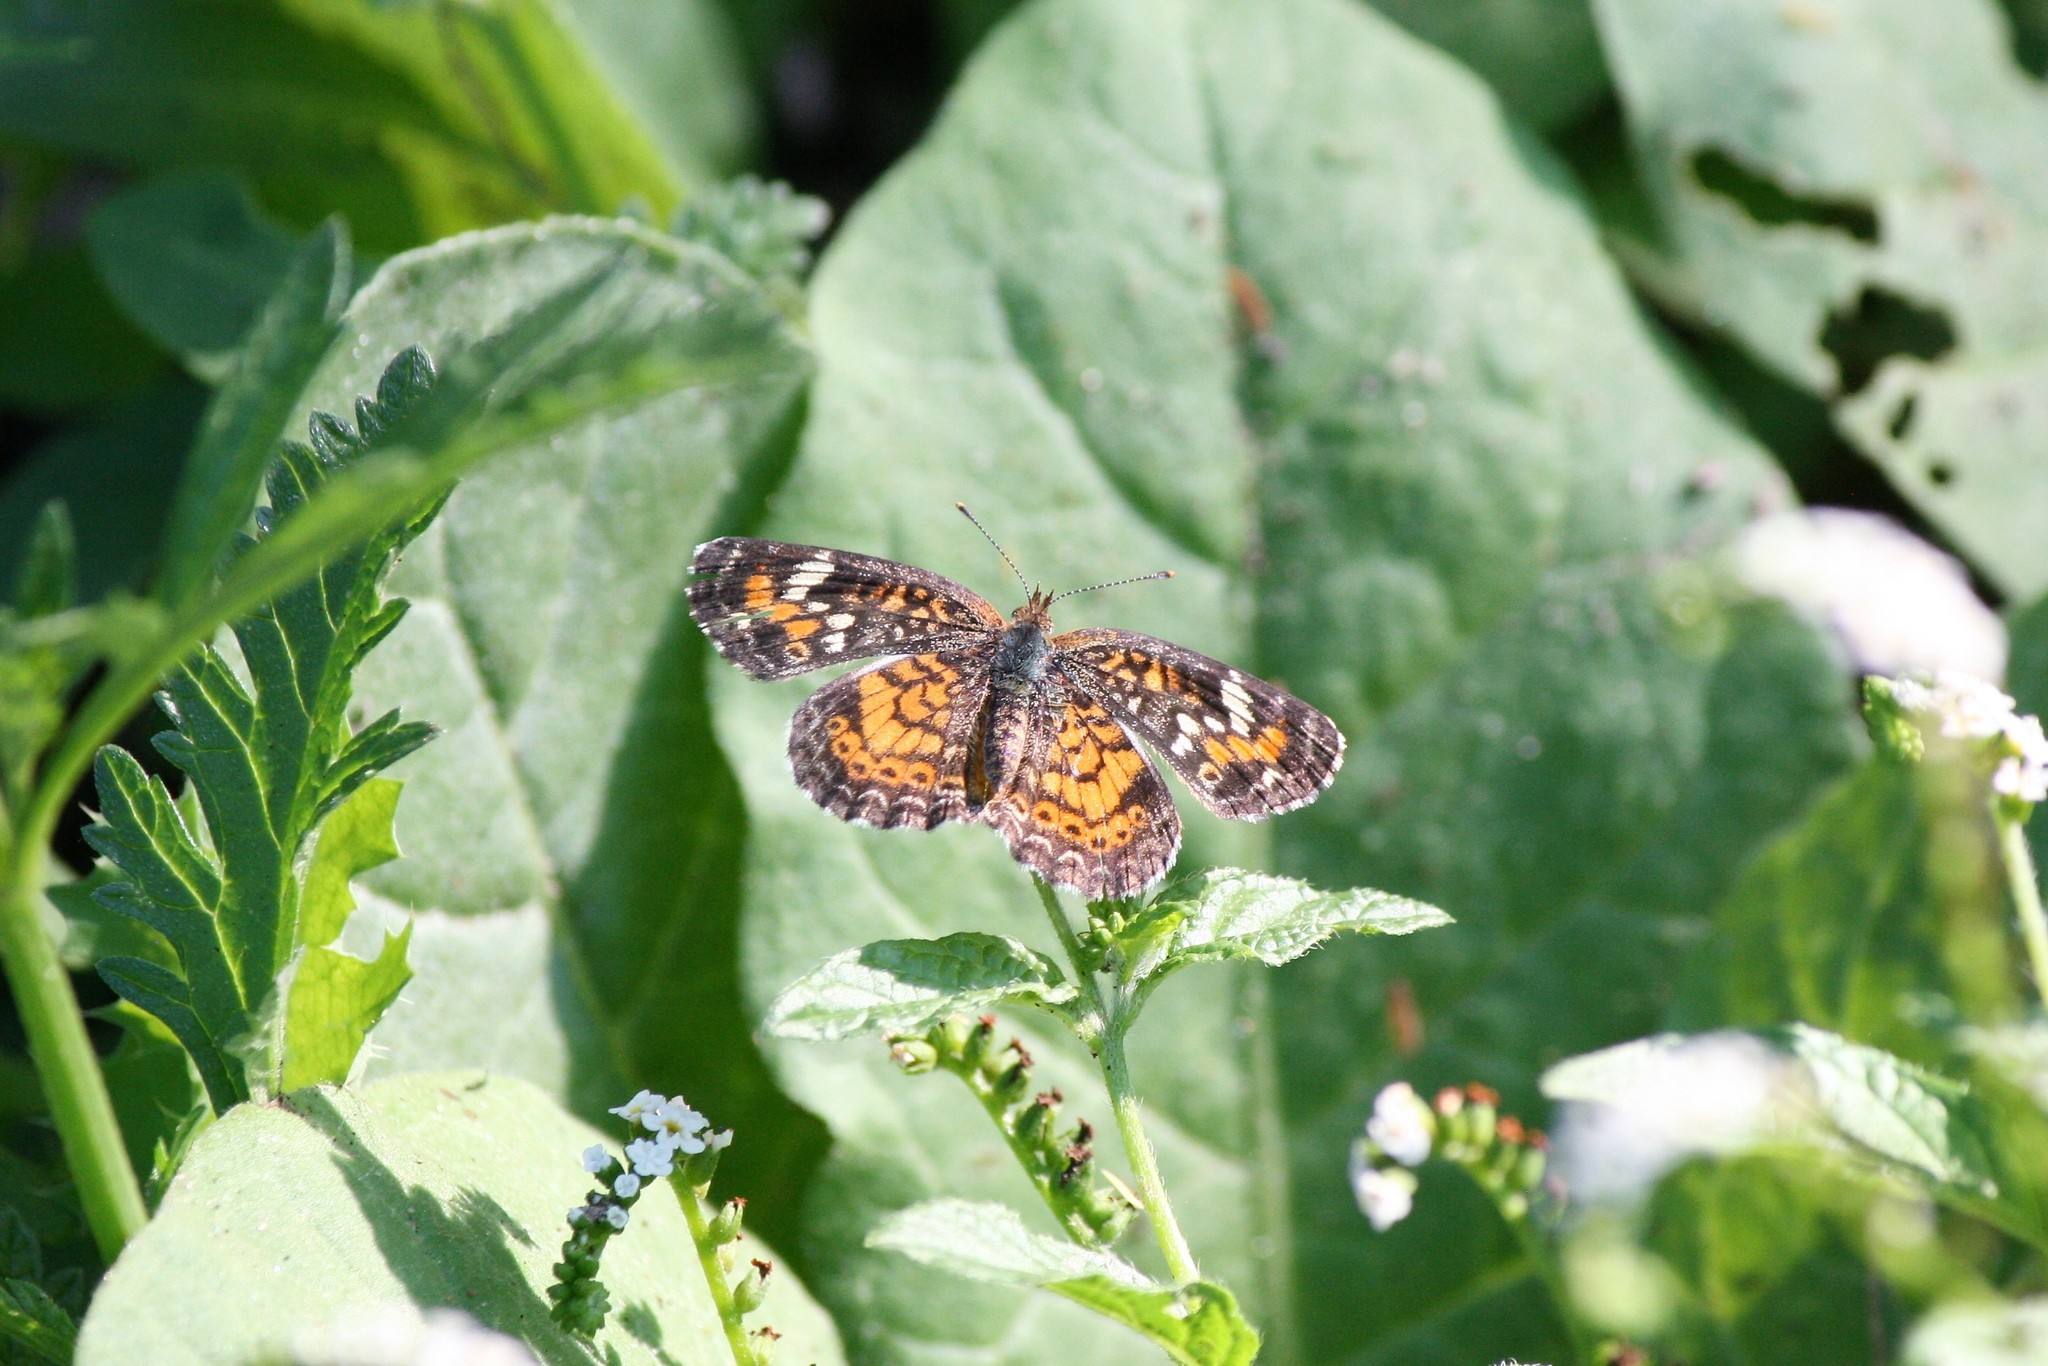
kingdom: Animalia
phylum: Arthropoda
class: Insecta
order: Lepidoptera
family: Nymphalidae
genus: Phyciodes
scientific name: Phyciodes phaon
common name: Phaon crescent
